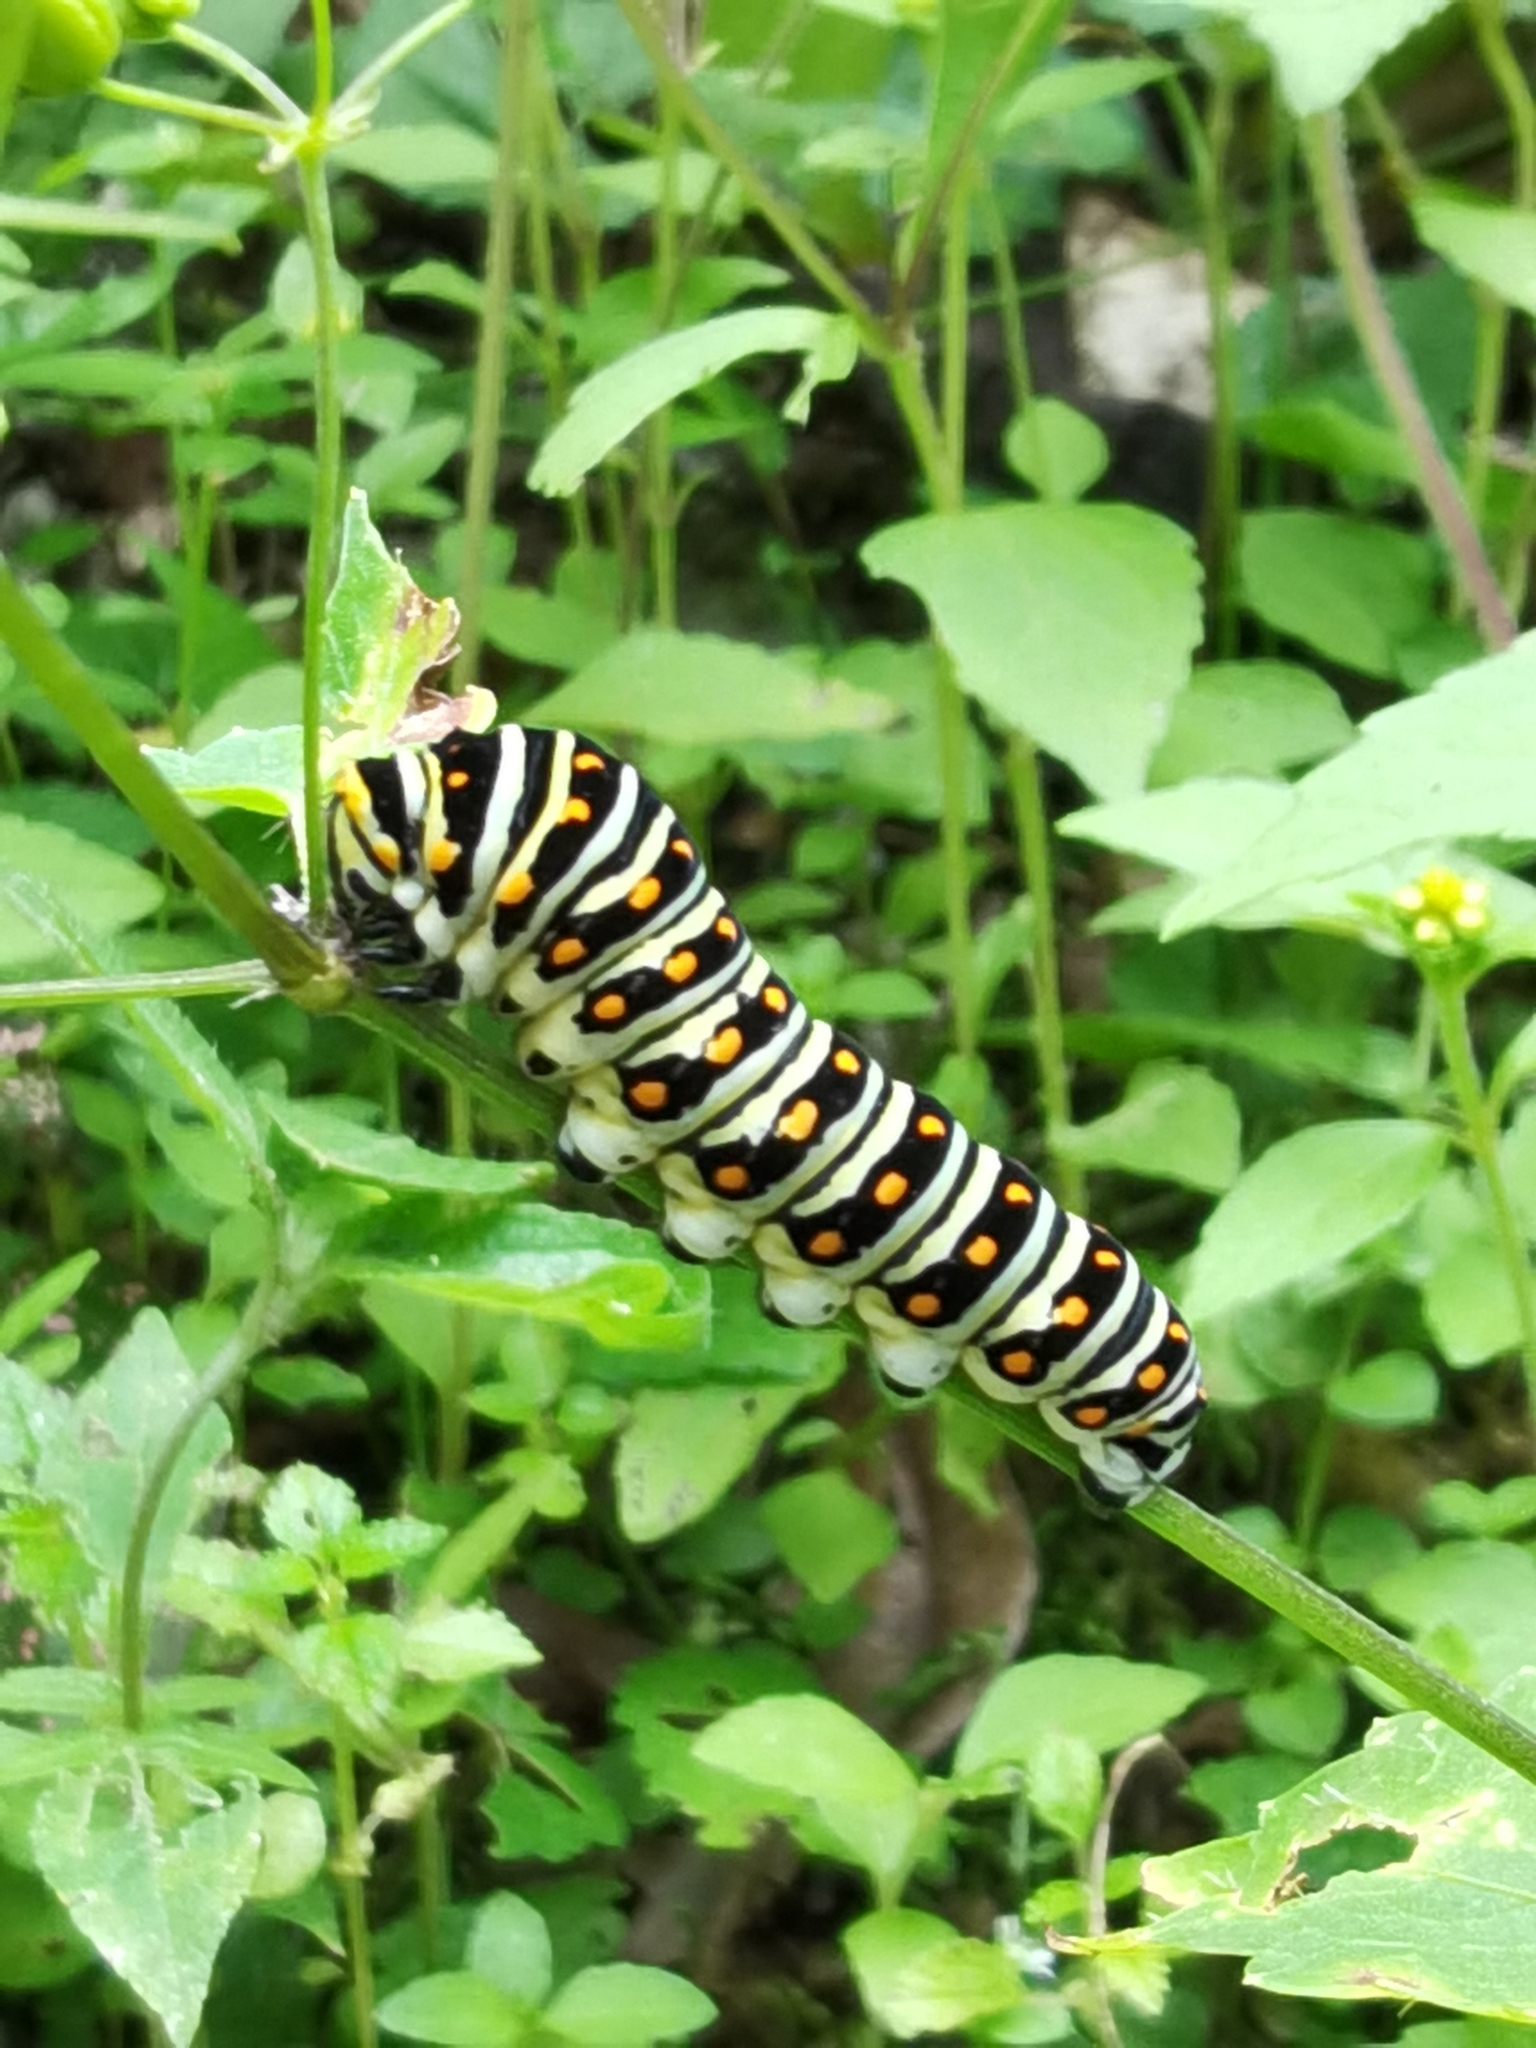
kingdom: Animalia
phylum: Arthropoda
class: Insecta
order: Lepidoptera
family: Papilionidae
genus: Papilio
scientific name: Papilio polyxenes
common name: Black swallowtail
